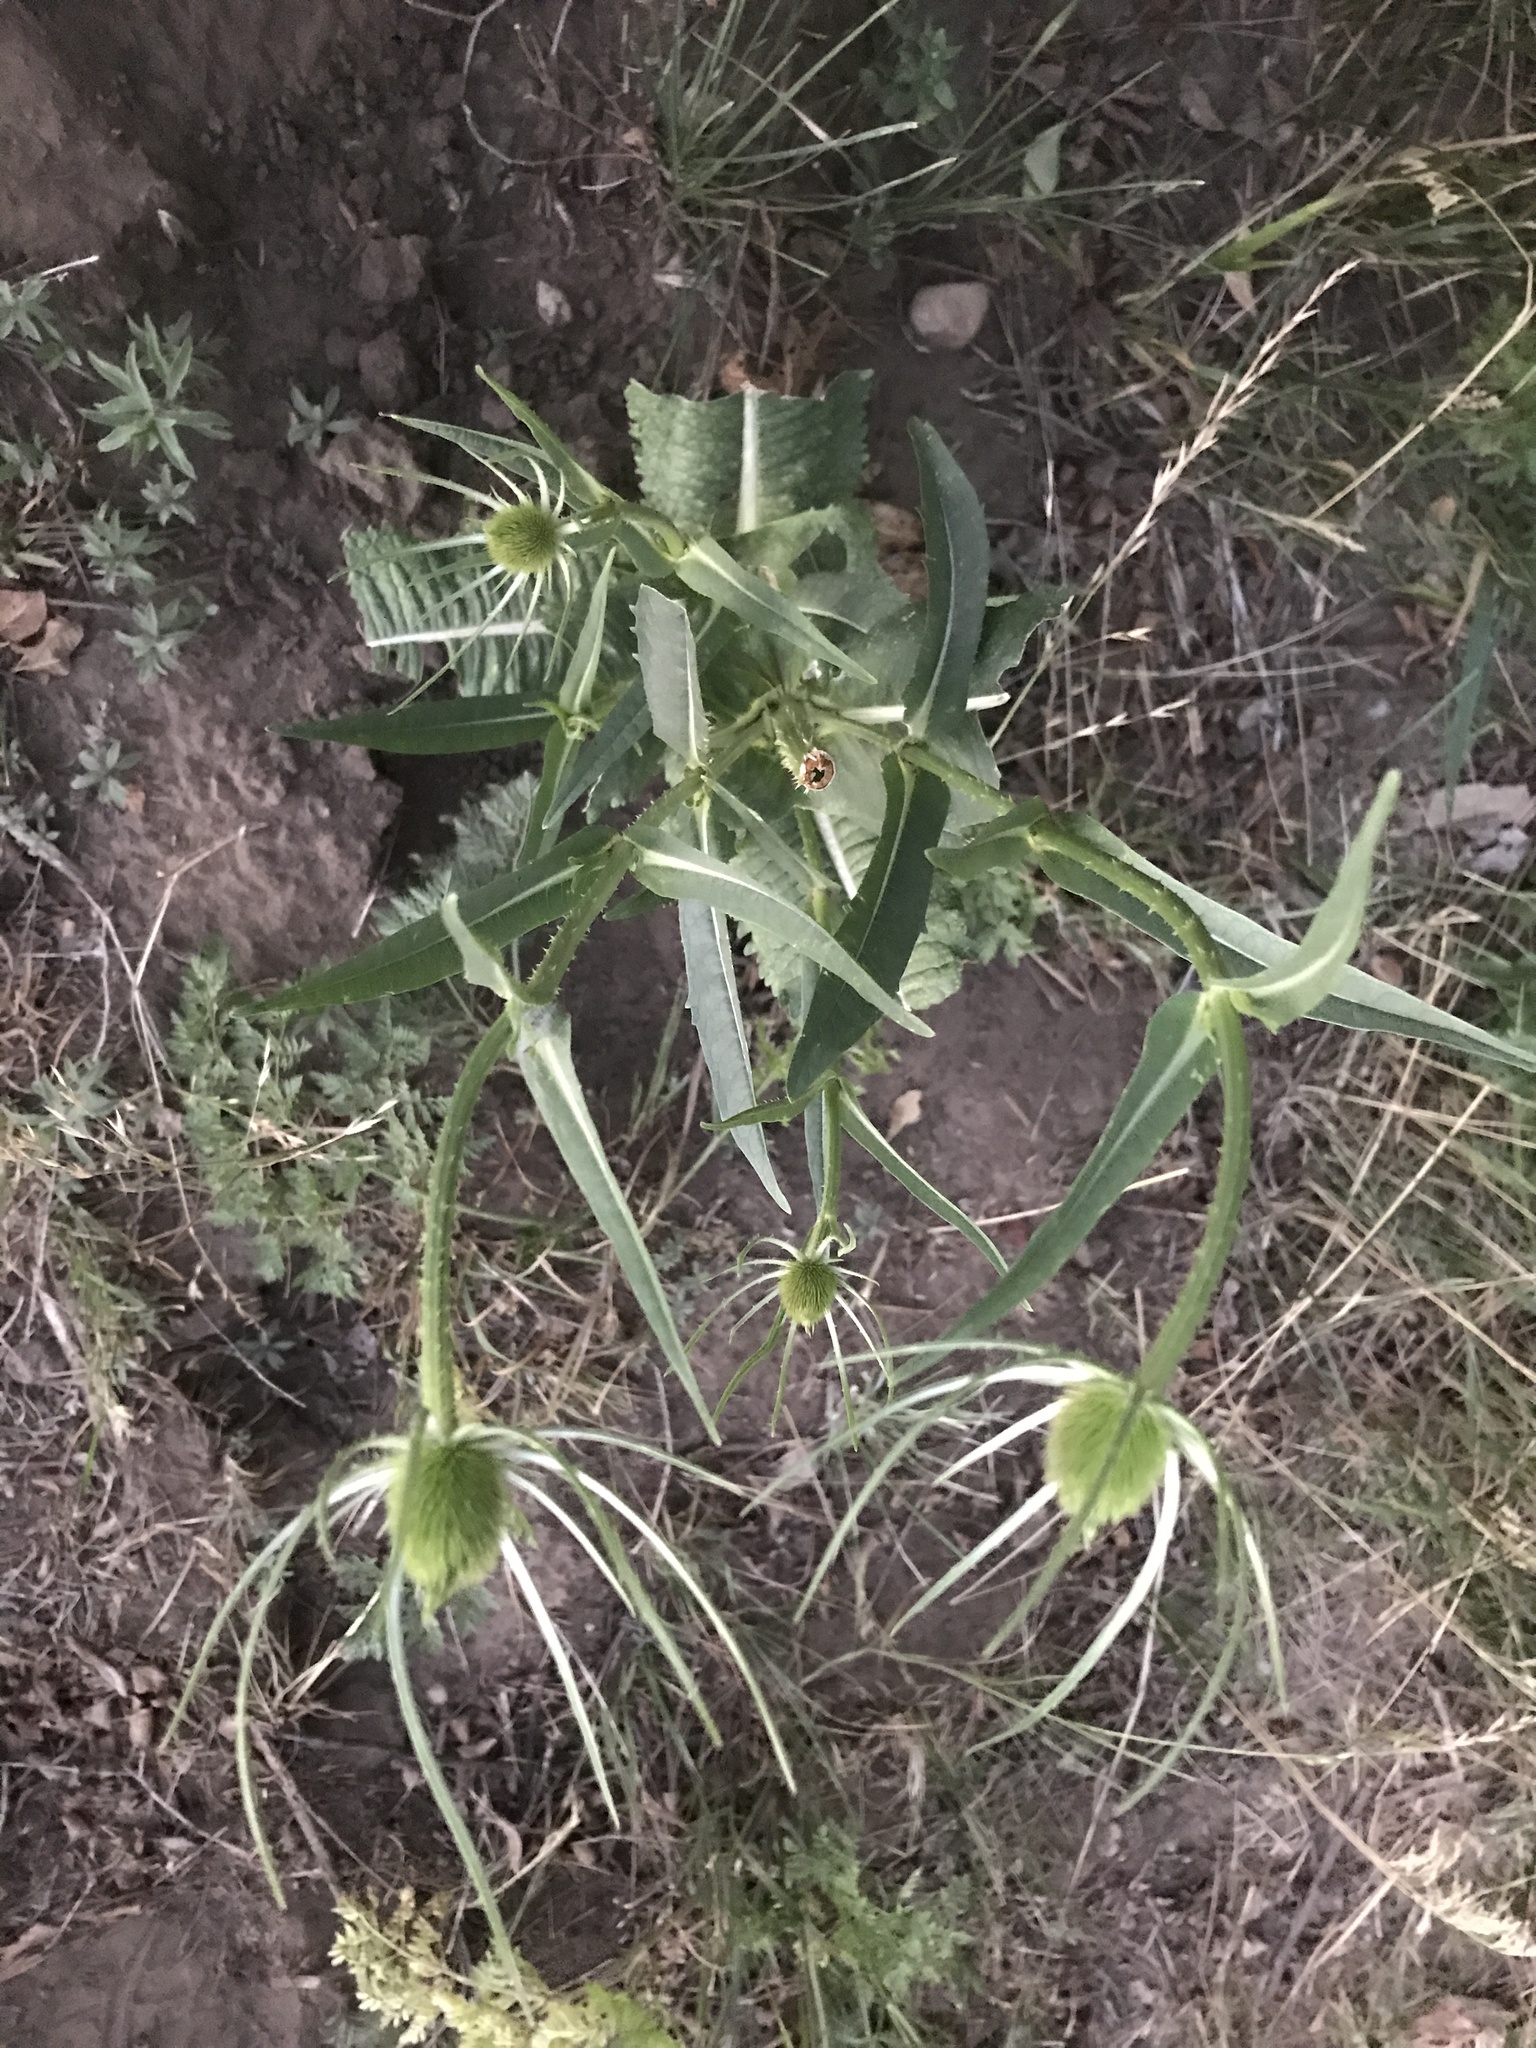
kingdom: Plantae
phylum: Tracheophyta
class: Magnoliopsida
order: Dipsacales
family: Caprifoliaceae
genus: Dipsacus
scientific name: Dipsacus fullonum
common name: Teasel
